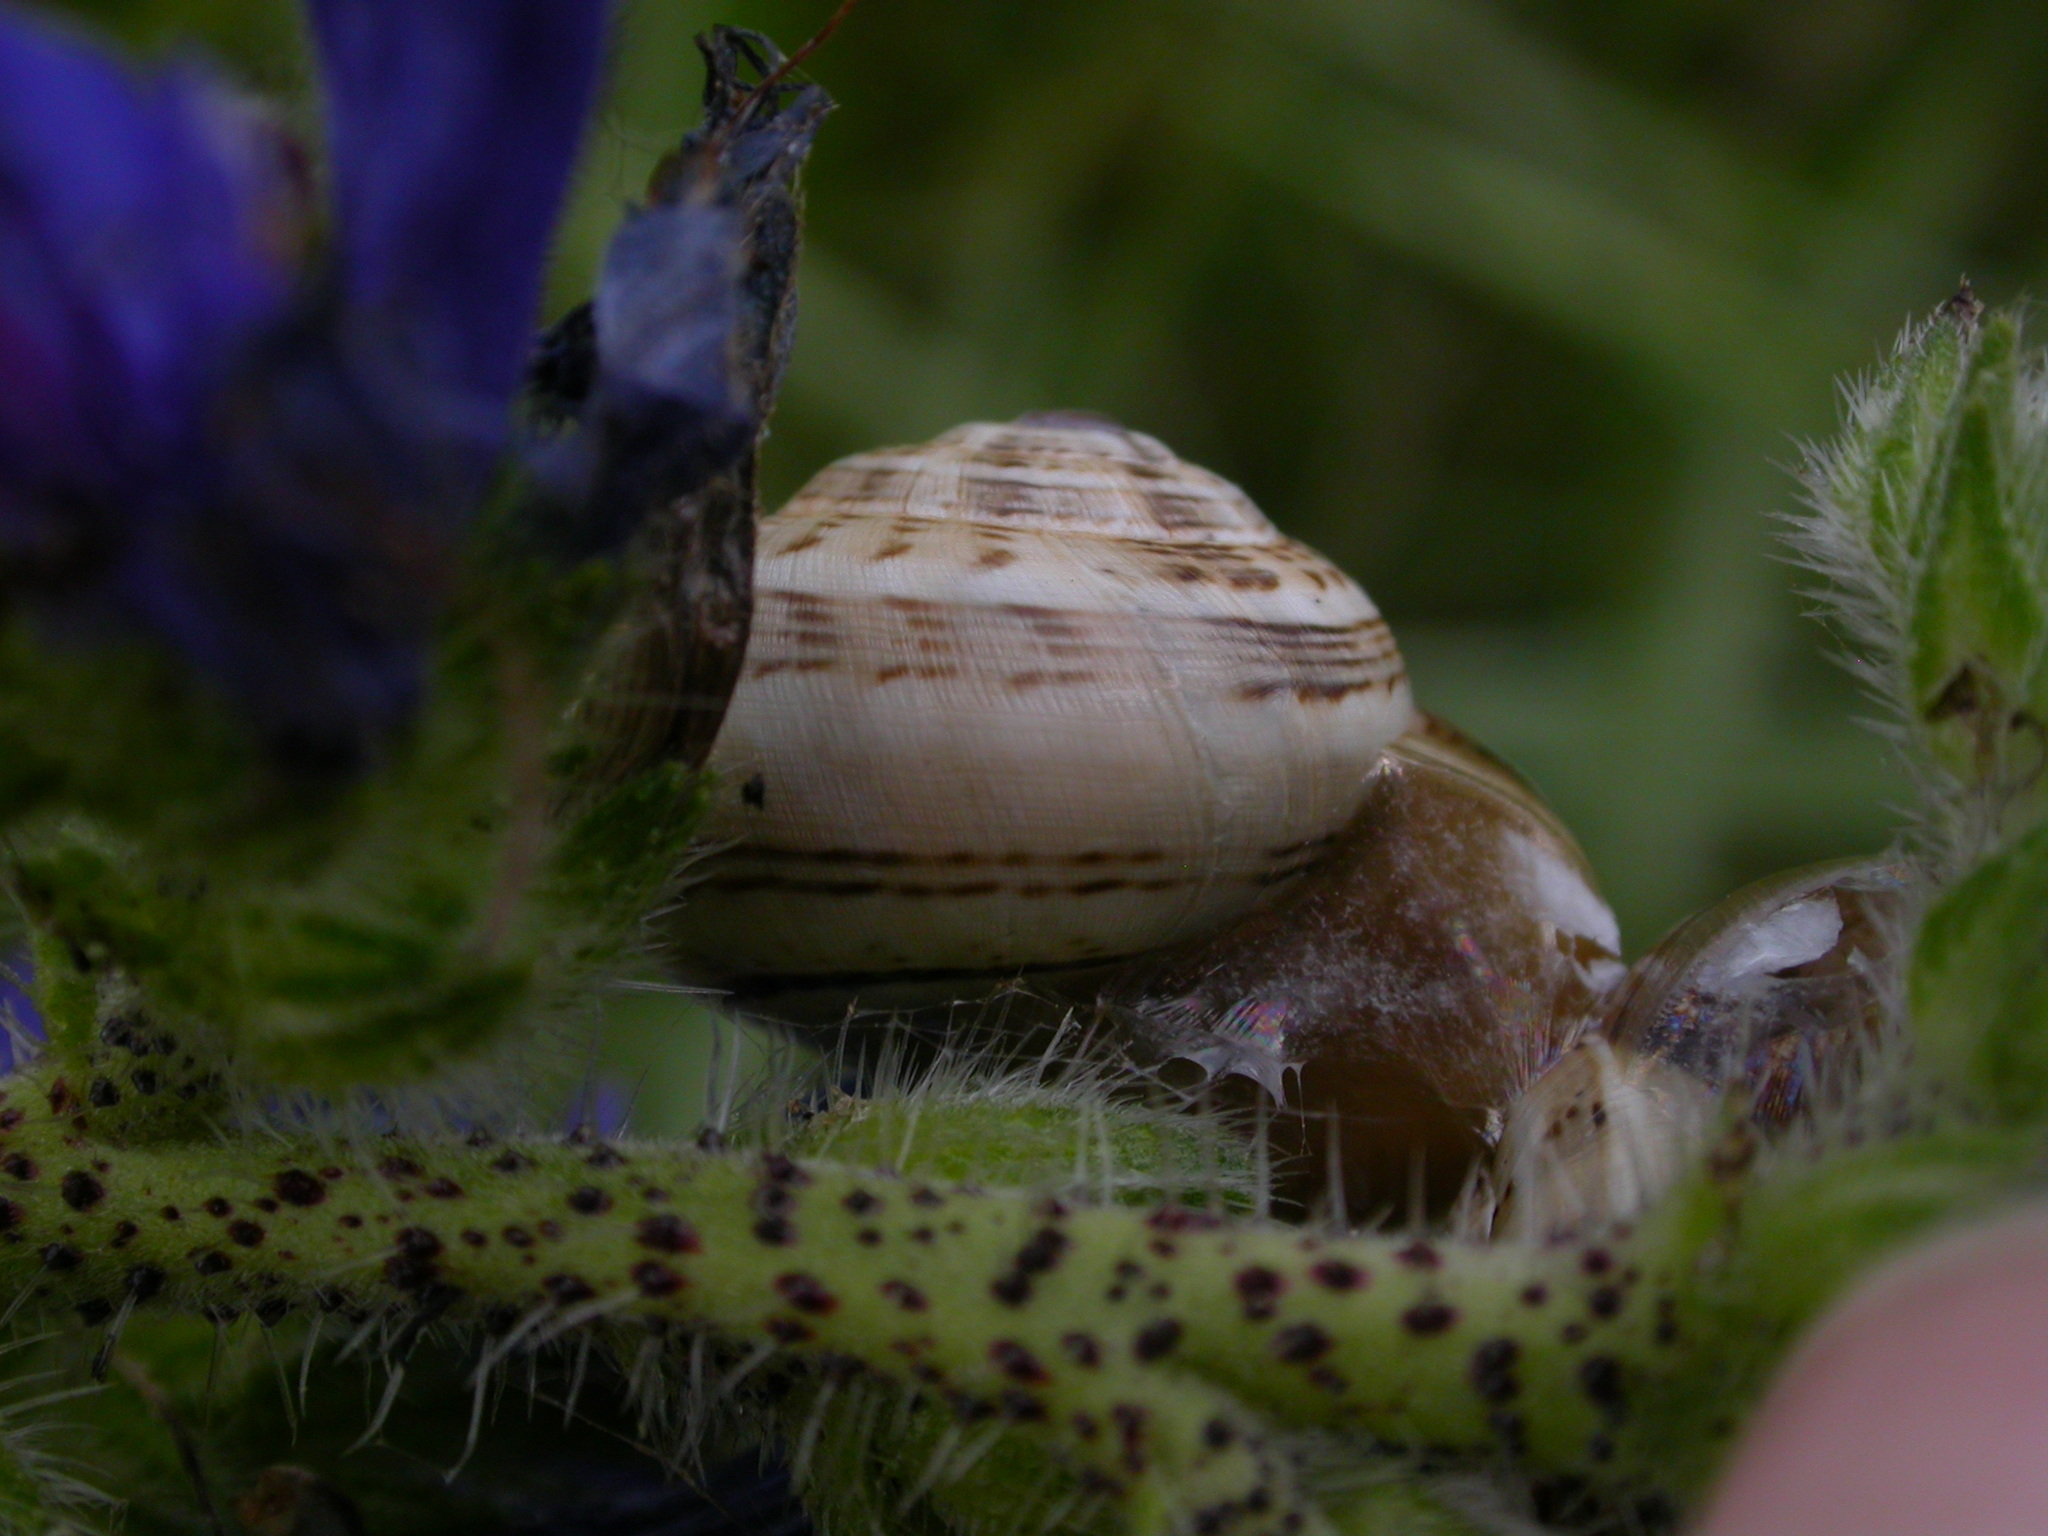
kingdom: Animalia
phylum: Mollusca
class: Gastropoda
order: Stylommatophora
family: Helicidae
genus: Theba
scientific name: Theba pisana
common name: White snail
